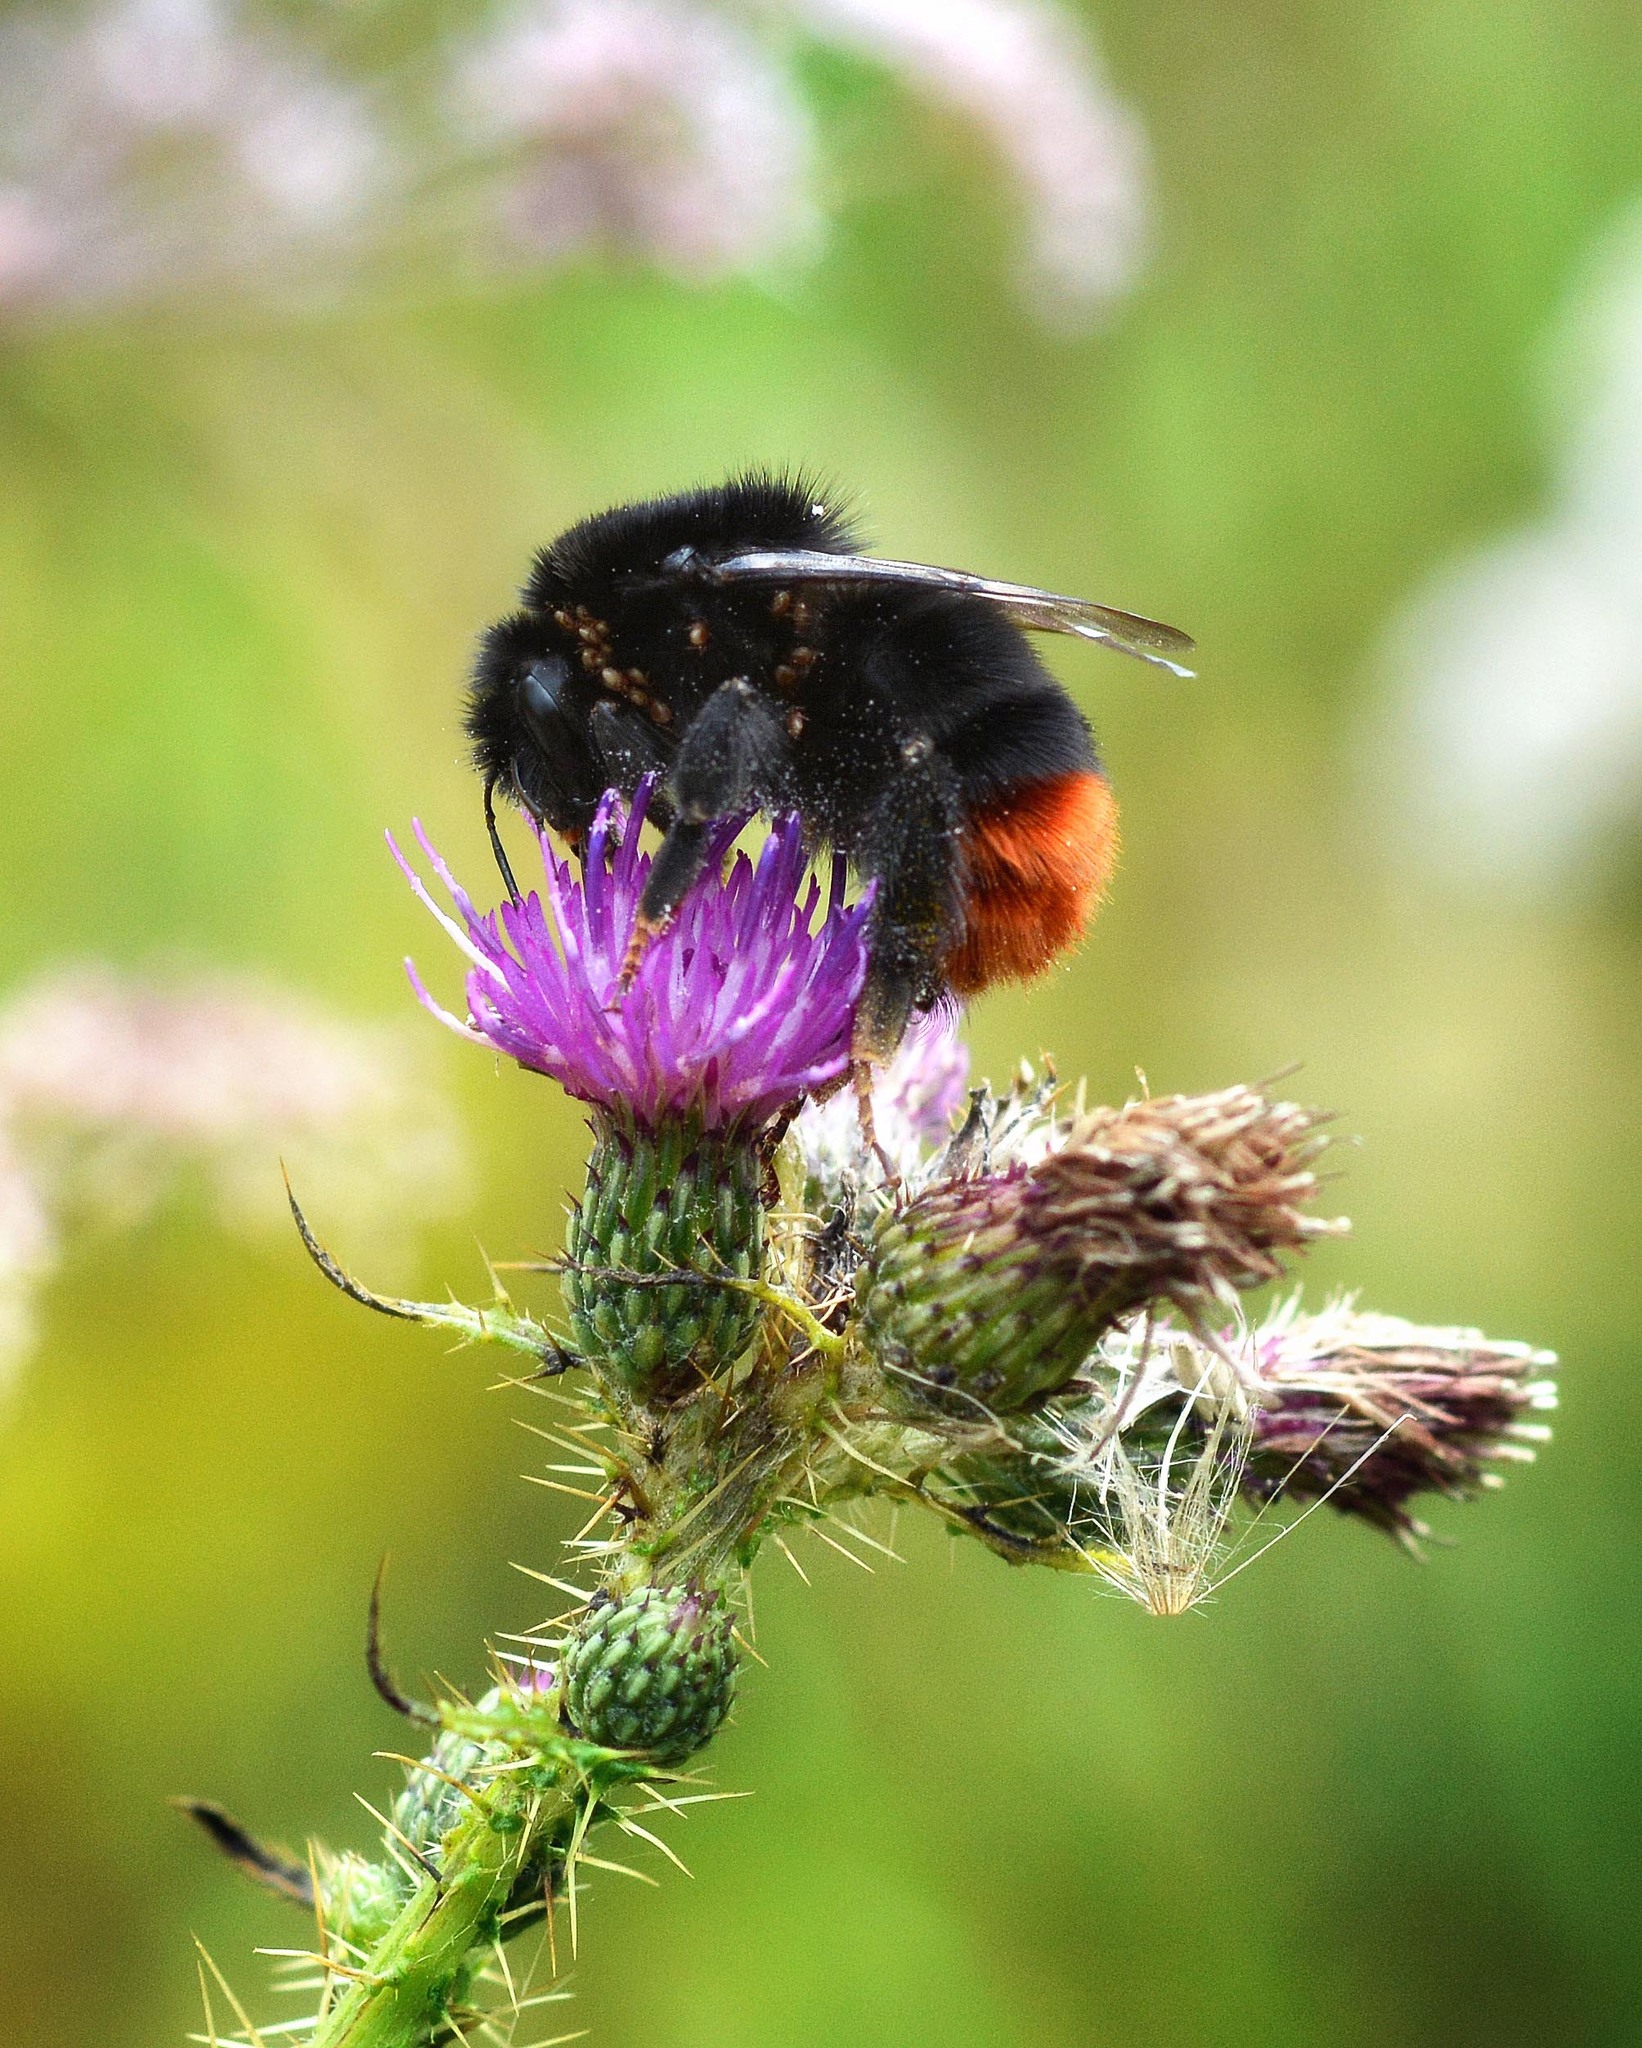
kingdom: Animalia
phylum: Arthropoda
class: Insecta
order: Hymenoptera
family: Apidae
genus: Bombus
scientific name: Bombus lapidarius
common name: Large red-tailed humble-bee
